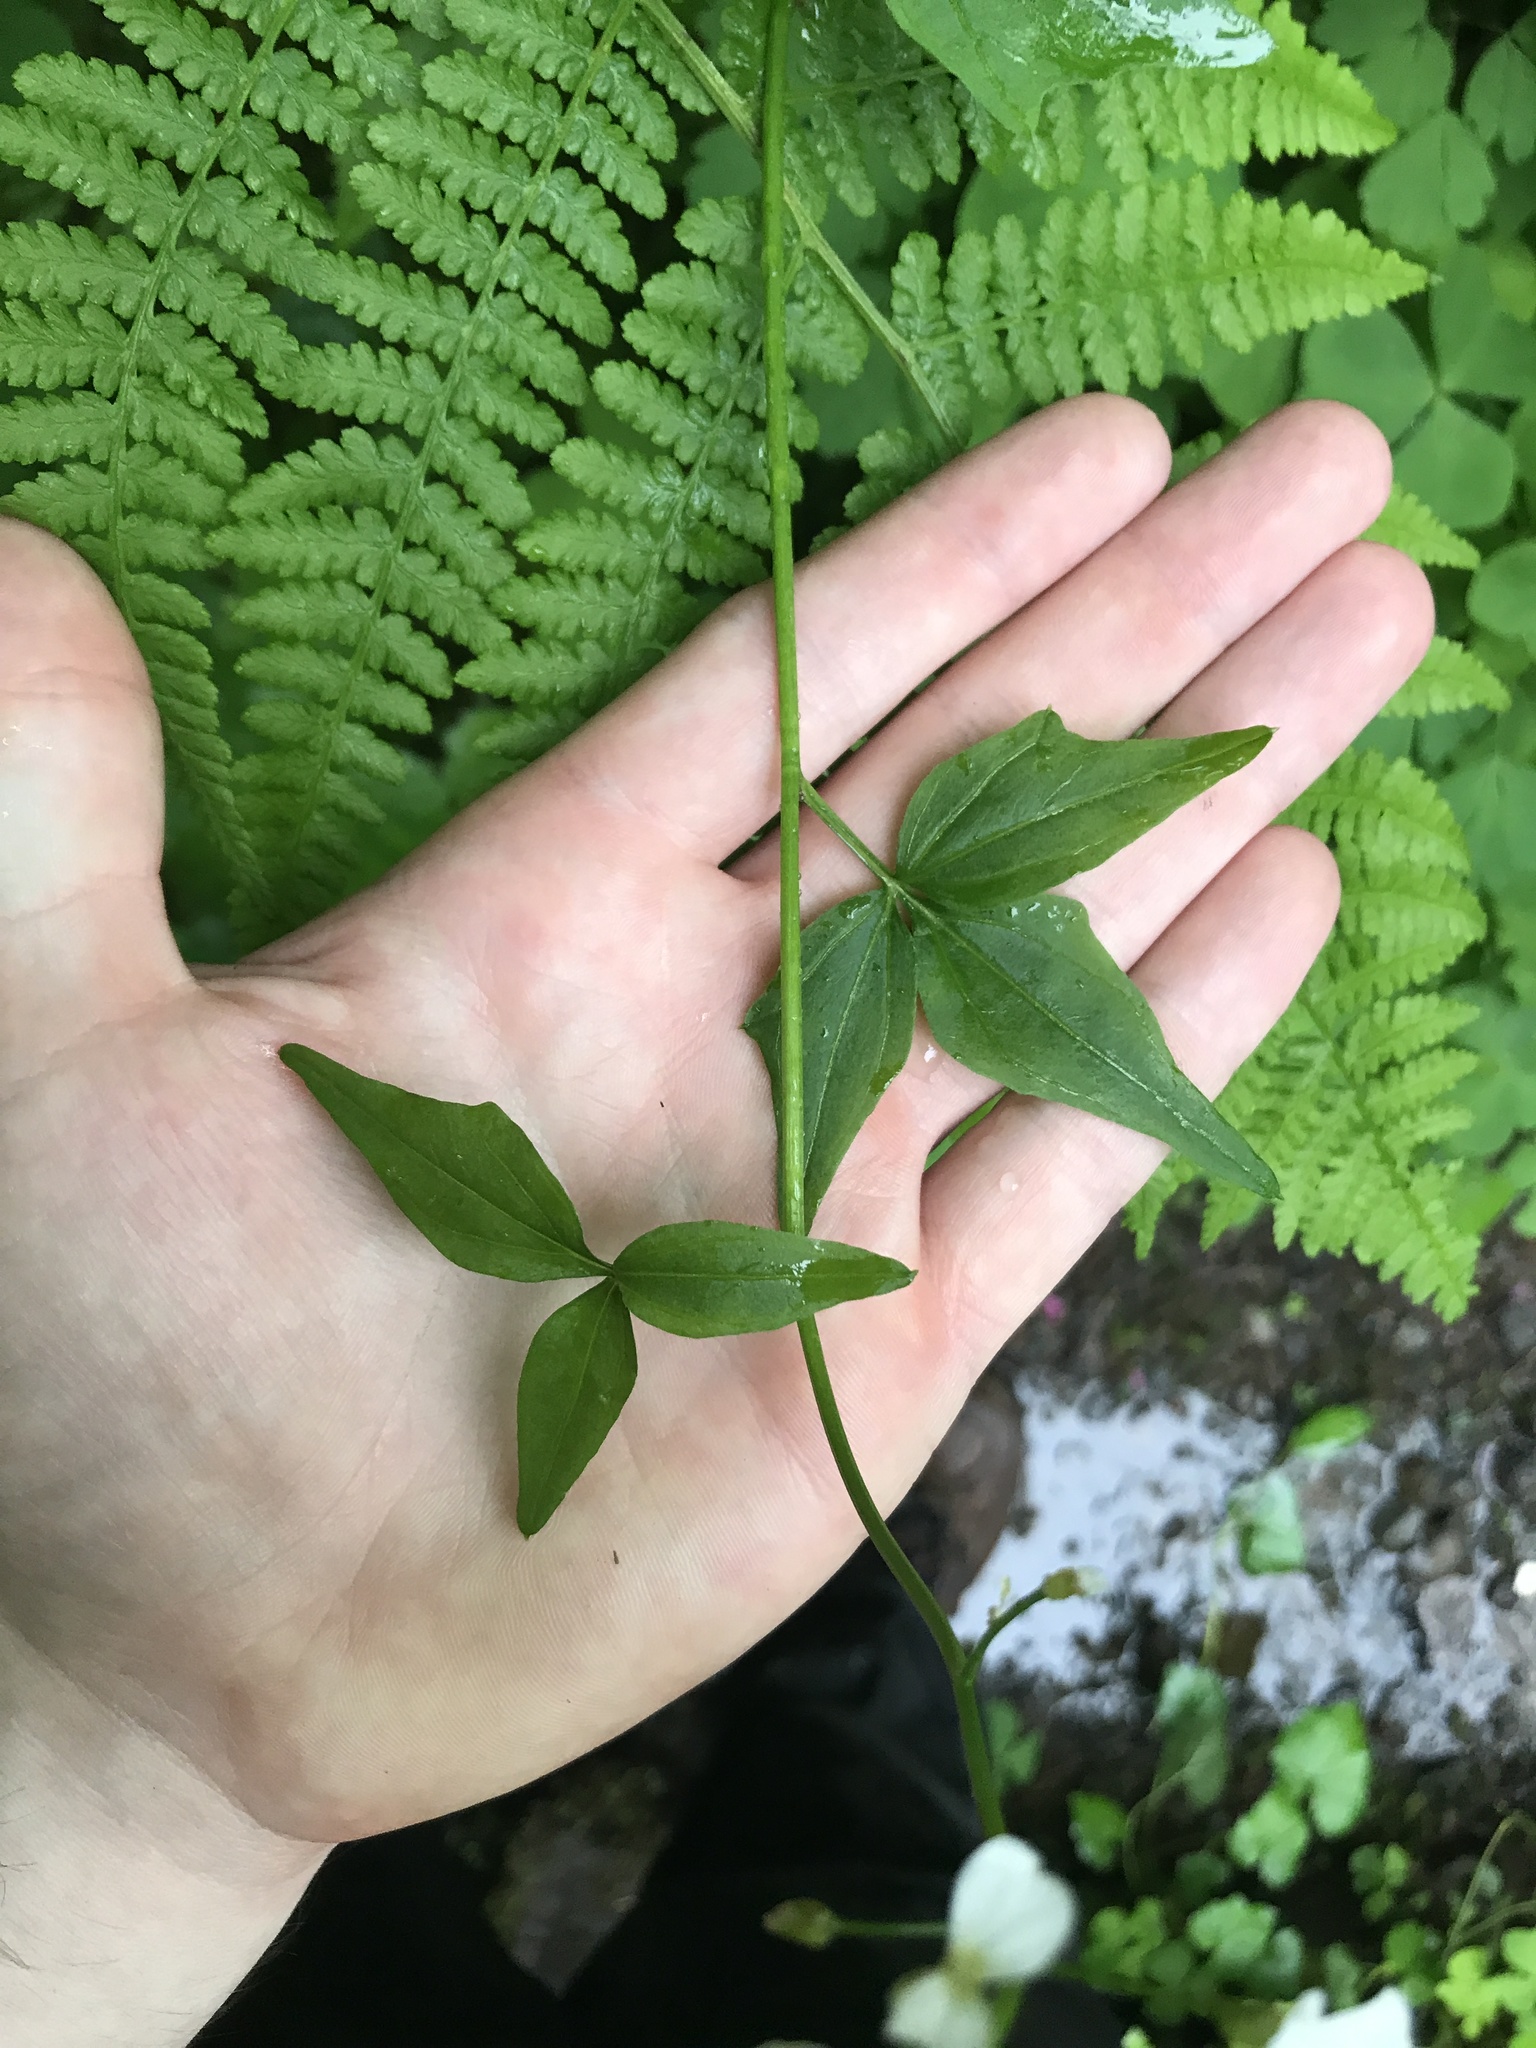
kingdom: Plantae
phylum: Tracheophyta
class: Magnoliopsida
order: Brassicales
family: Brassicaceae
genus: Cardamine
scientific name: Cardamine angulata
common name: Angled bittercress
